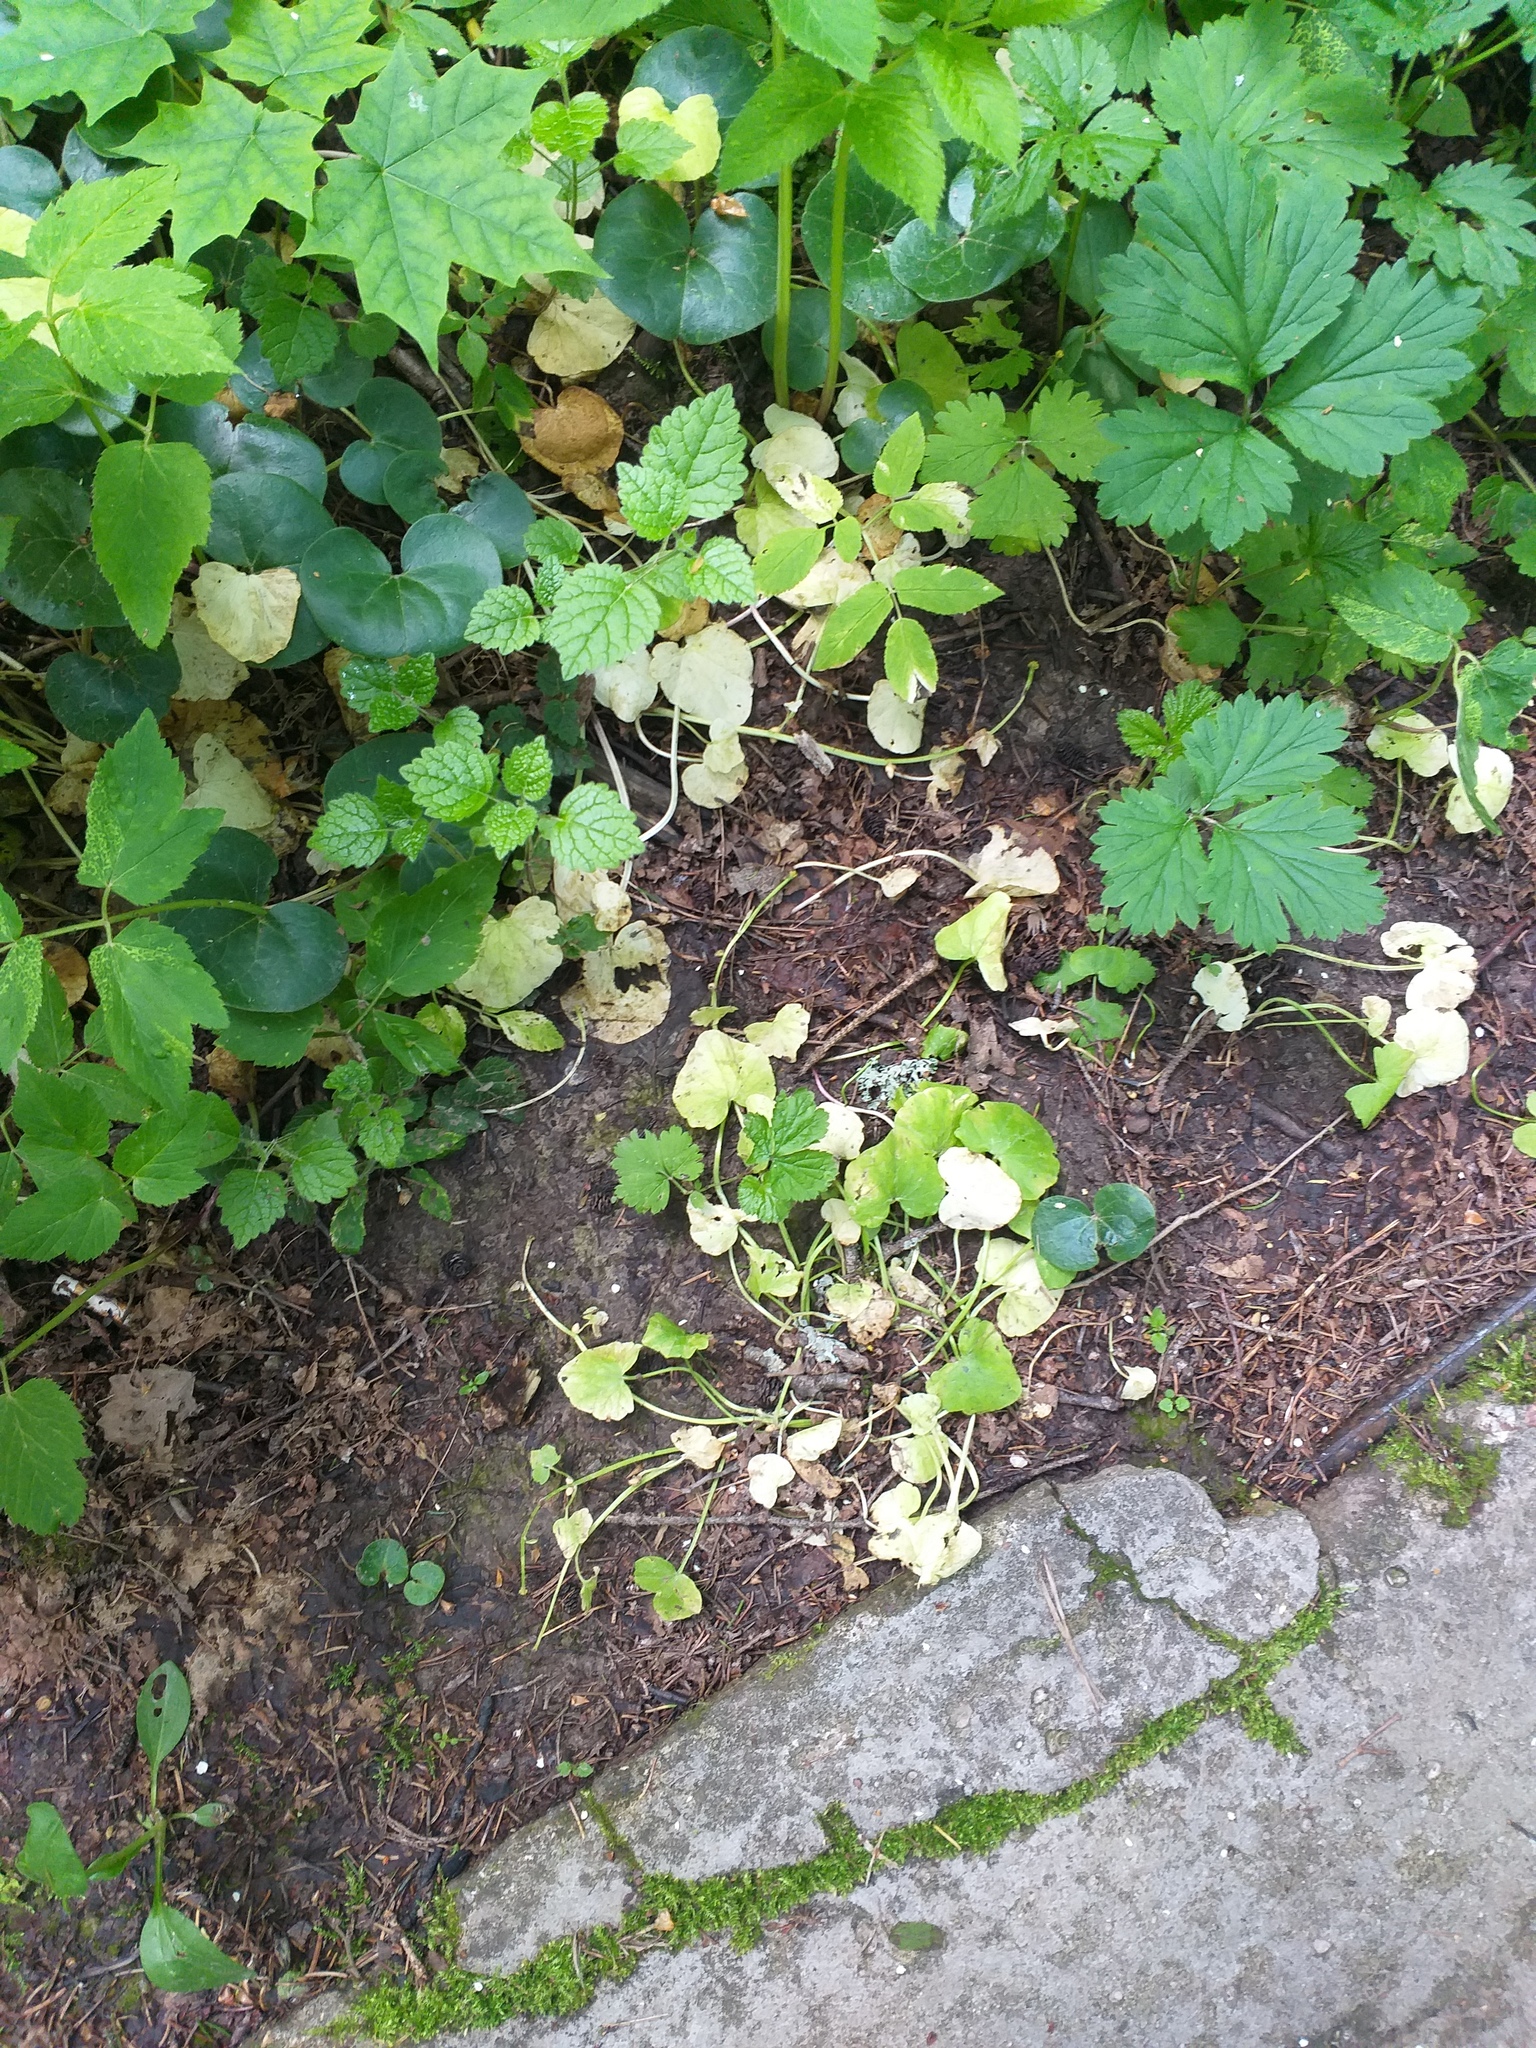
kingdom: Plantae
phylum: Tracheophyta
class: Magnoliopsida
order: Ranunculales
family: Ranunculaceae
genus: Ficaria
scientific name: Ficaria verna
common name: Lesser celandine
